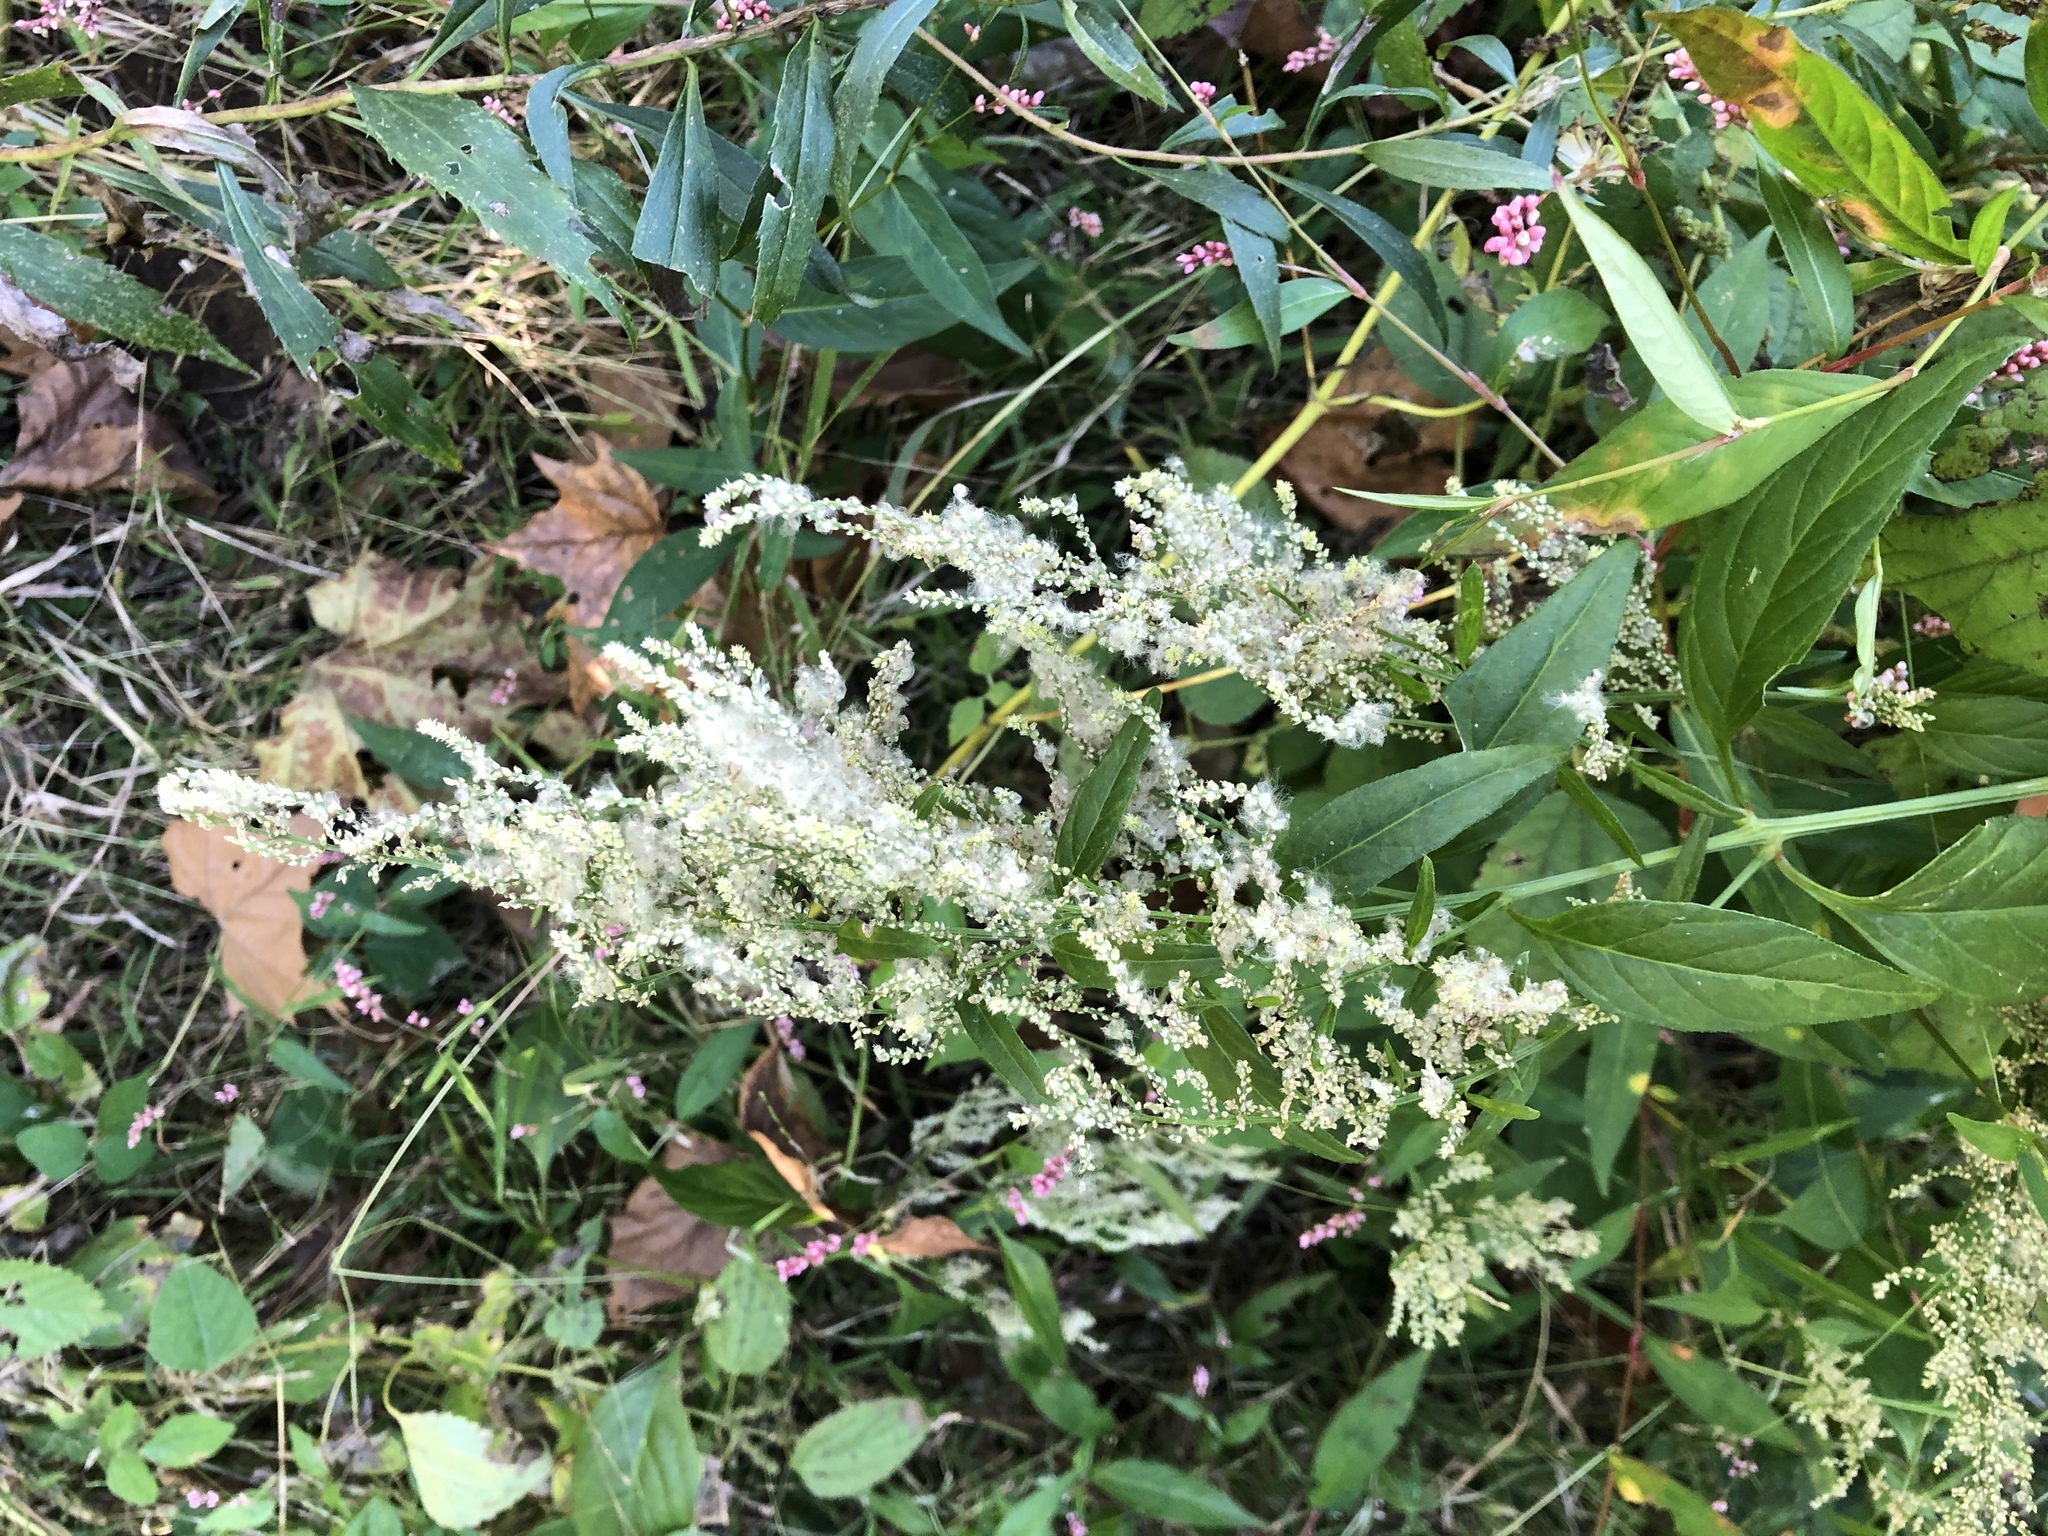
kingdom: Plantae
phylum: Tracheophyta
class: Magnoliopsida
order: Caryophyllales
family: Amaranthaceae
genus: Iresine
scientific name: Iresine rhizomatosa
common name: Juda's-bush
